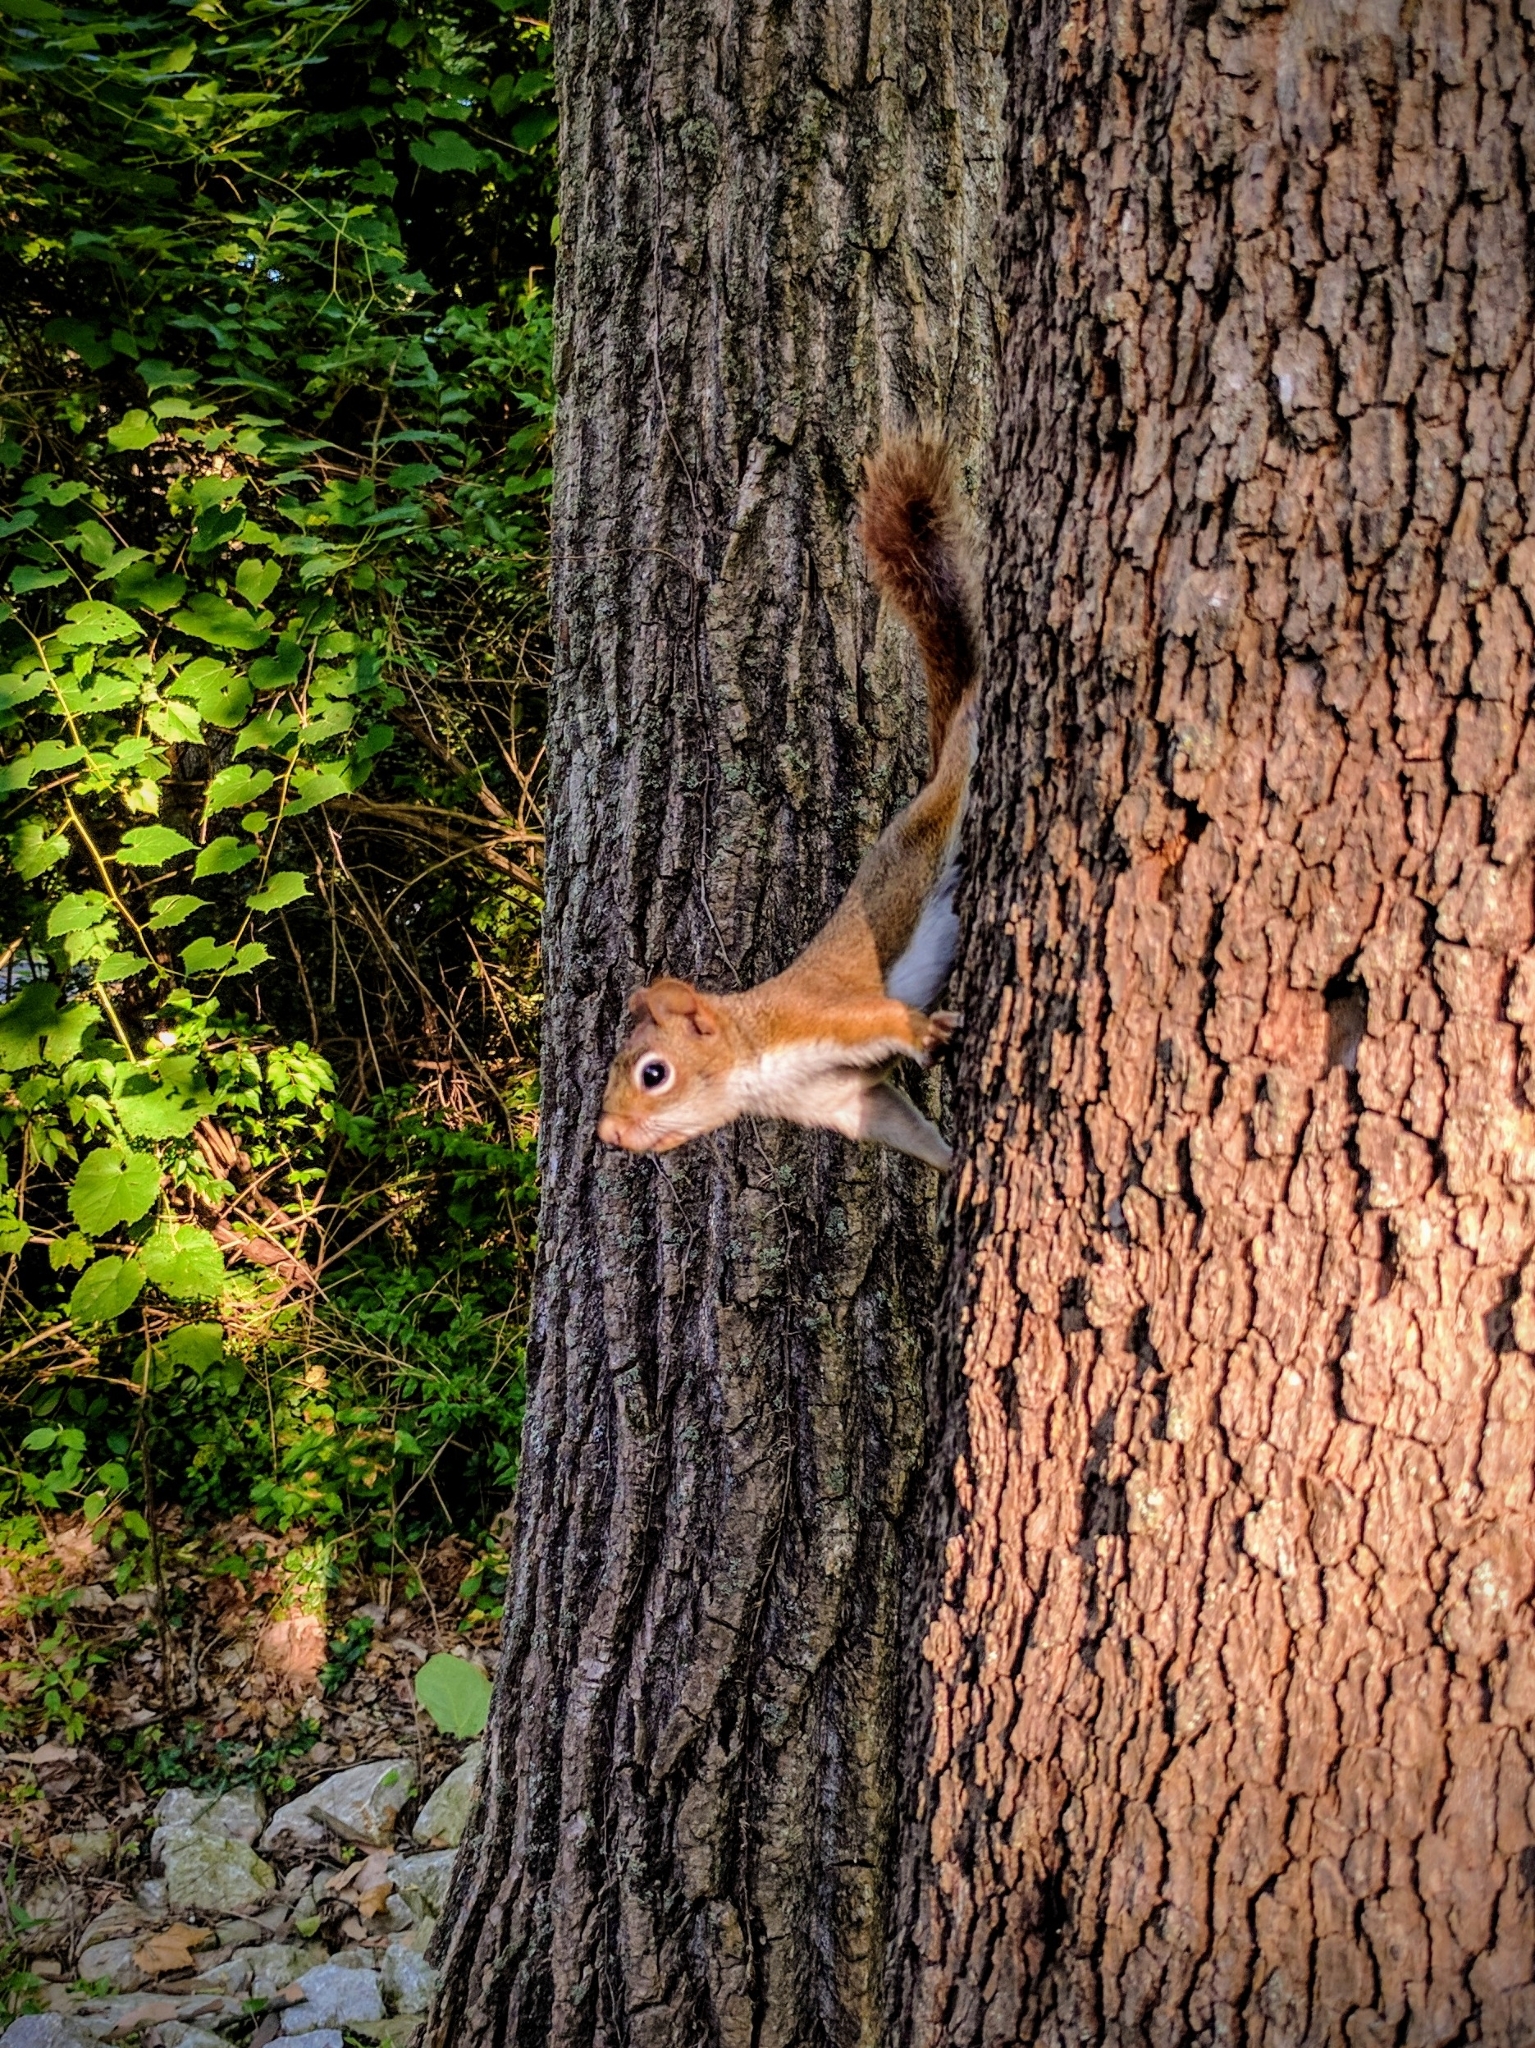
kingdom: Animalia
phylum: Chordata
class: Mammalia
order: Rodentia
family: Sciuridae
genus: Tamiasciurus
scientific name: Tamiasciurus hudsonicus
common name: Red squirrel
